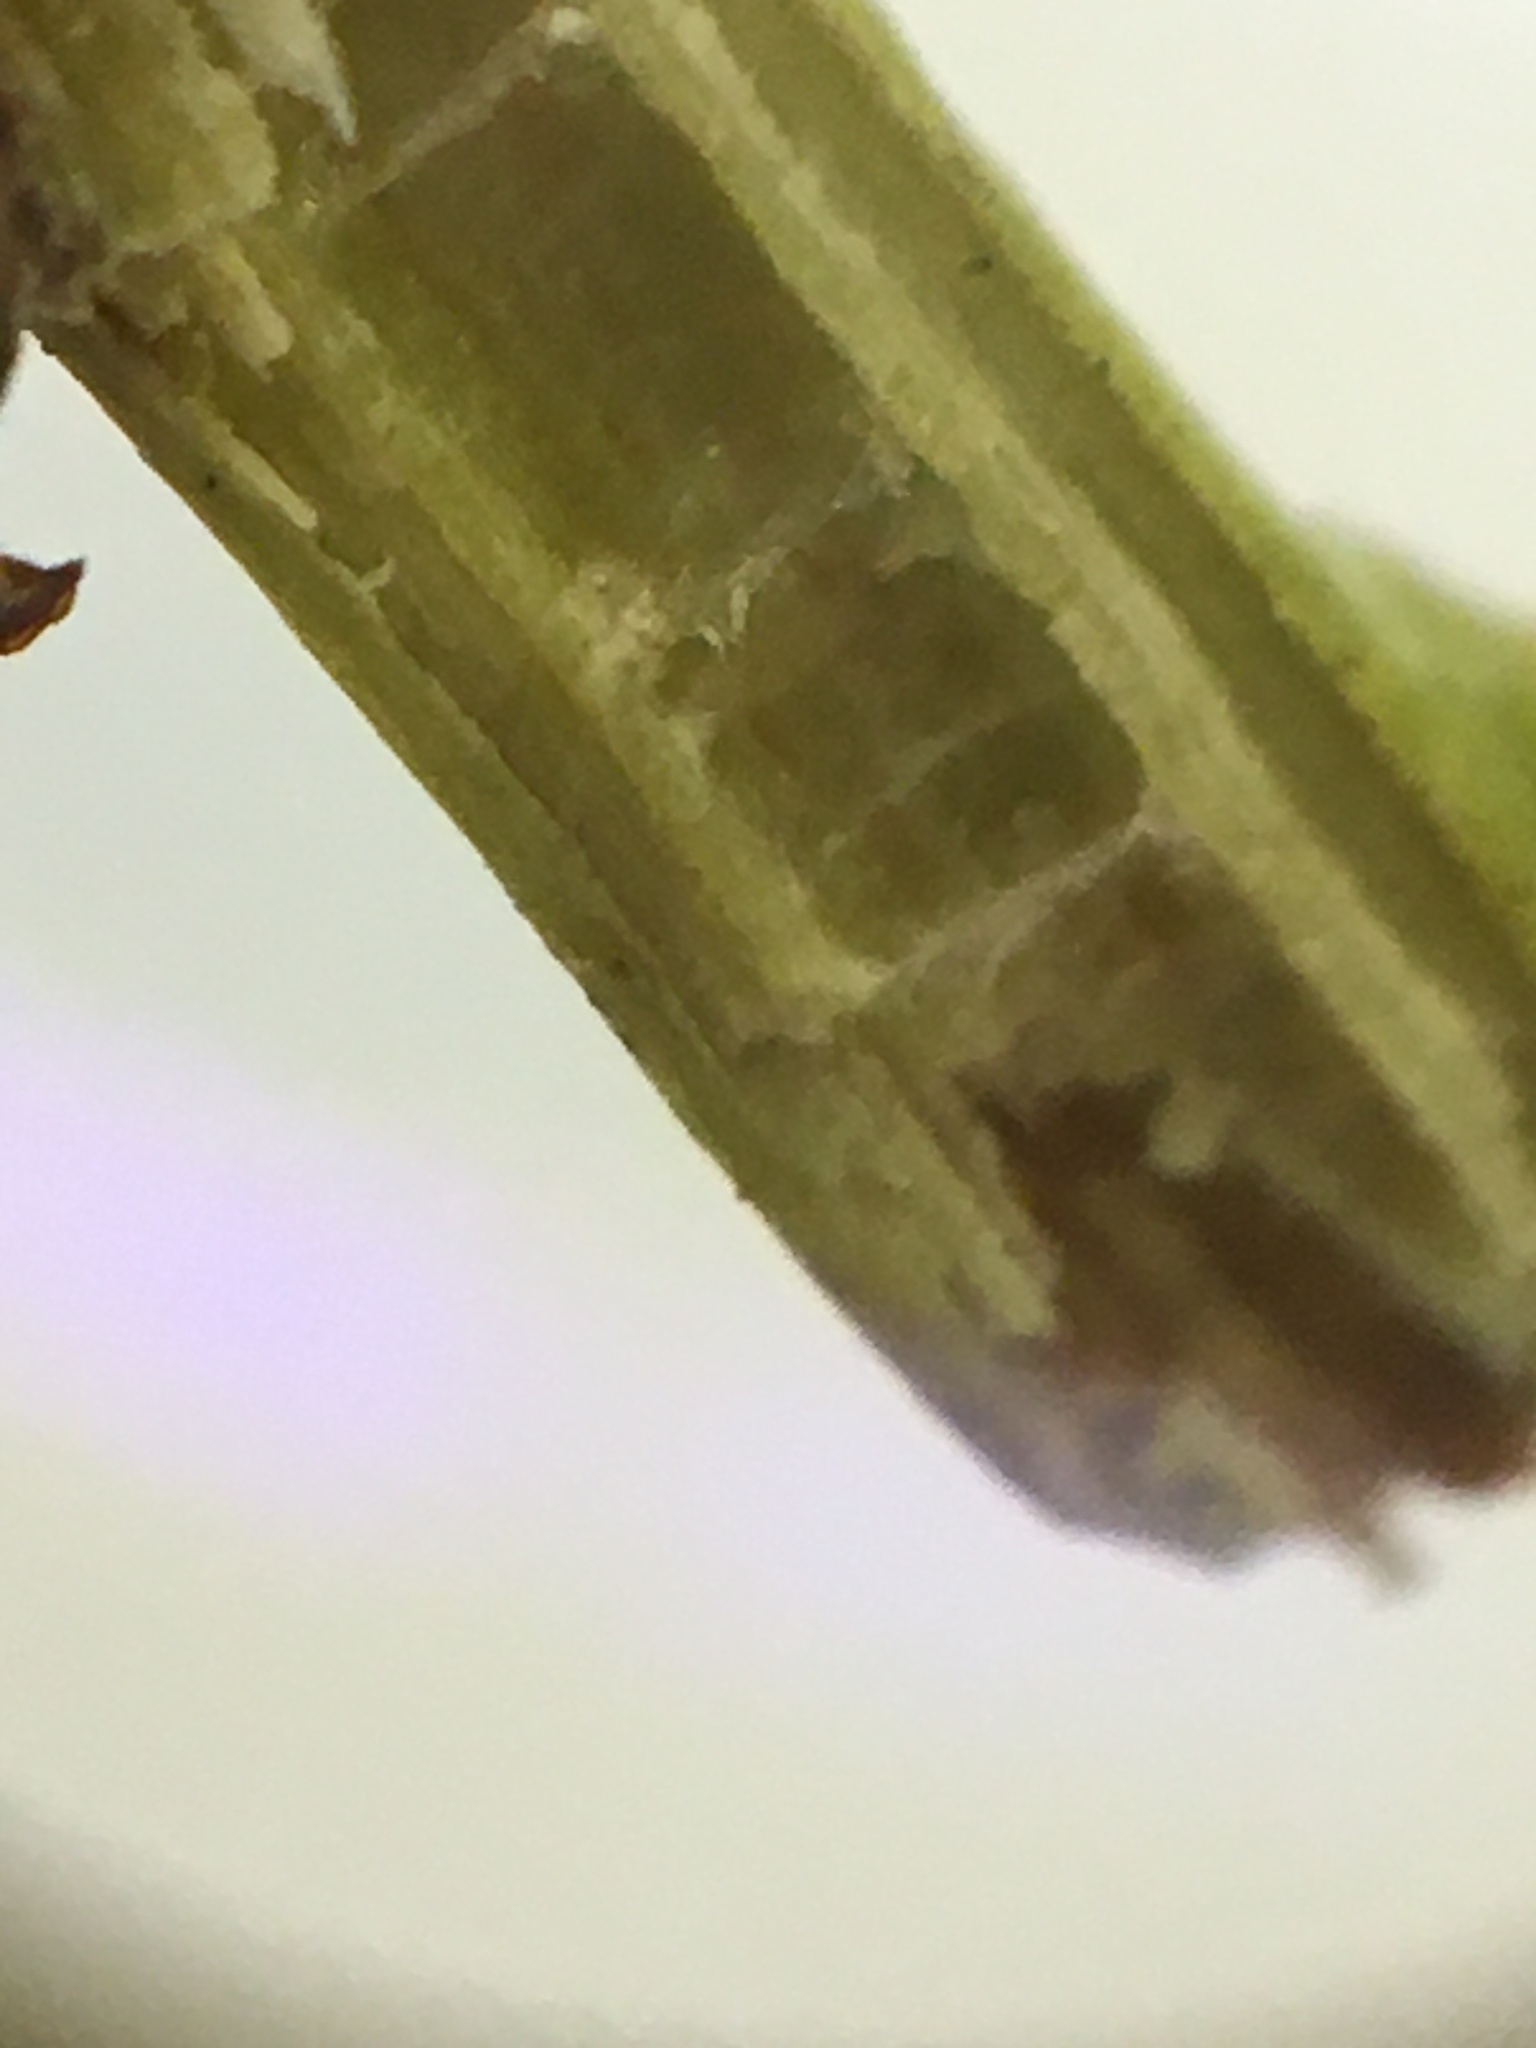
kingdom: Plantae
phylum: Tracheophyta
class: Magnoliopsida
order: Ericales
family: Ericaceae
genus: Agarista
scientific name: Agarista populifolia
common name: Pipeplant
